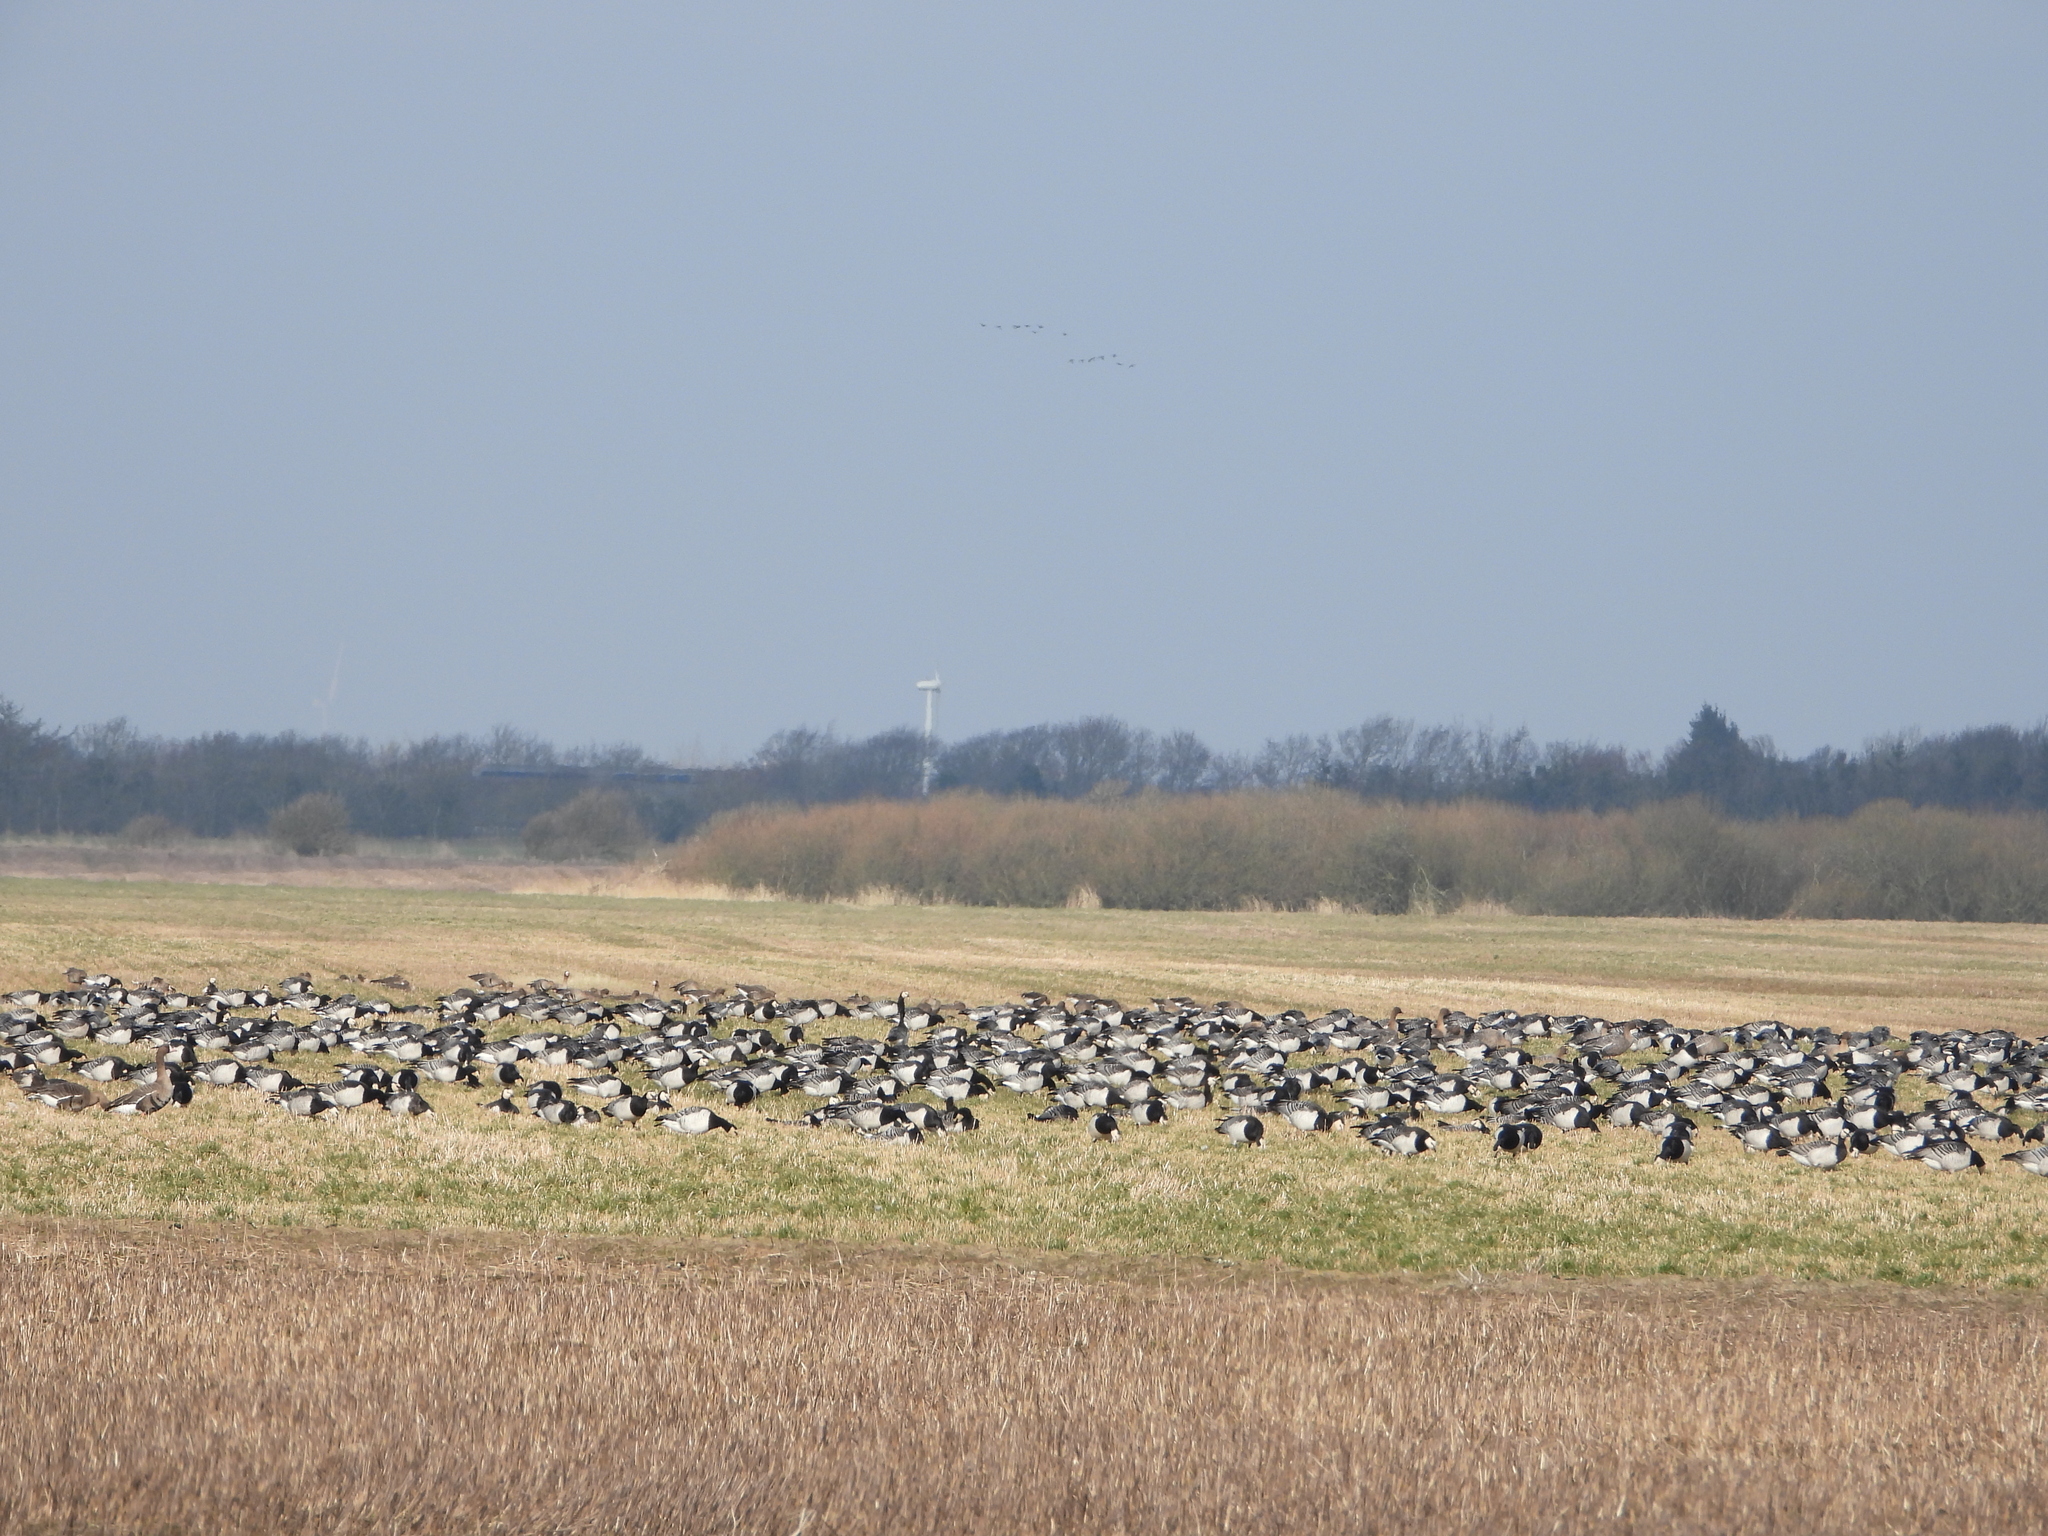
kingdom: Animalia
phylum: Chordata
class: Aves
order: Anseriformes
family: Anatidae
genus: Branta
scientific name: Branta leucopsis
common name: Barnacle goose
